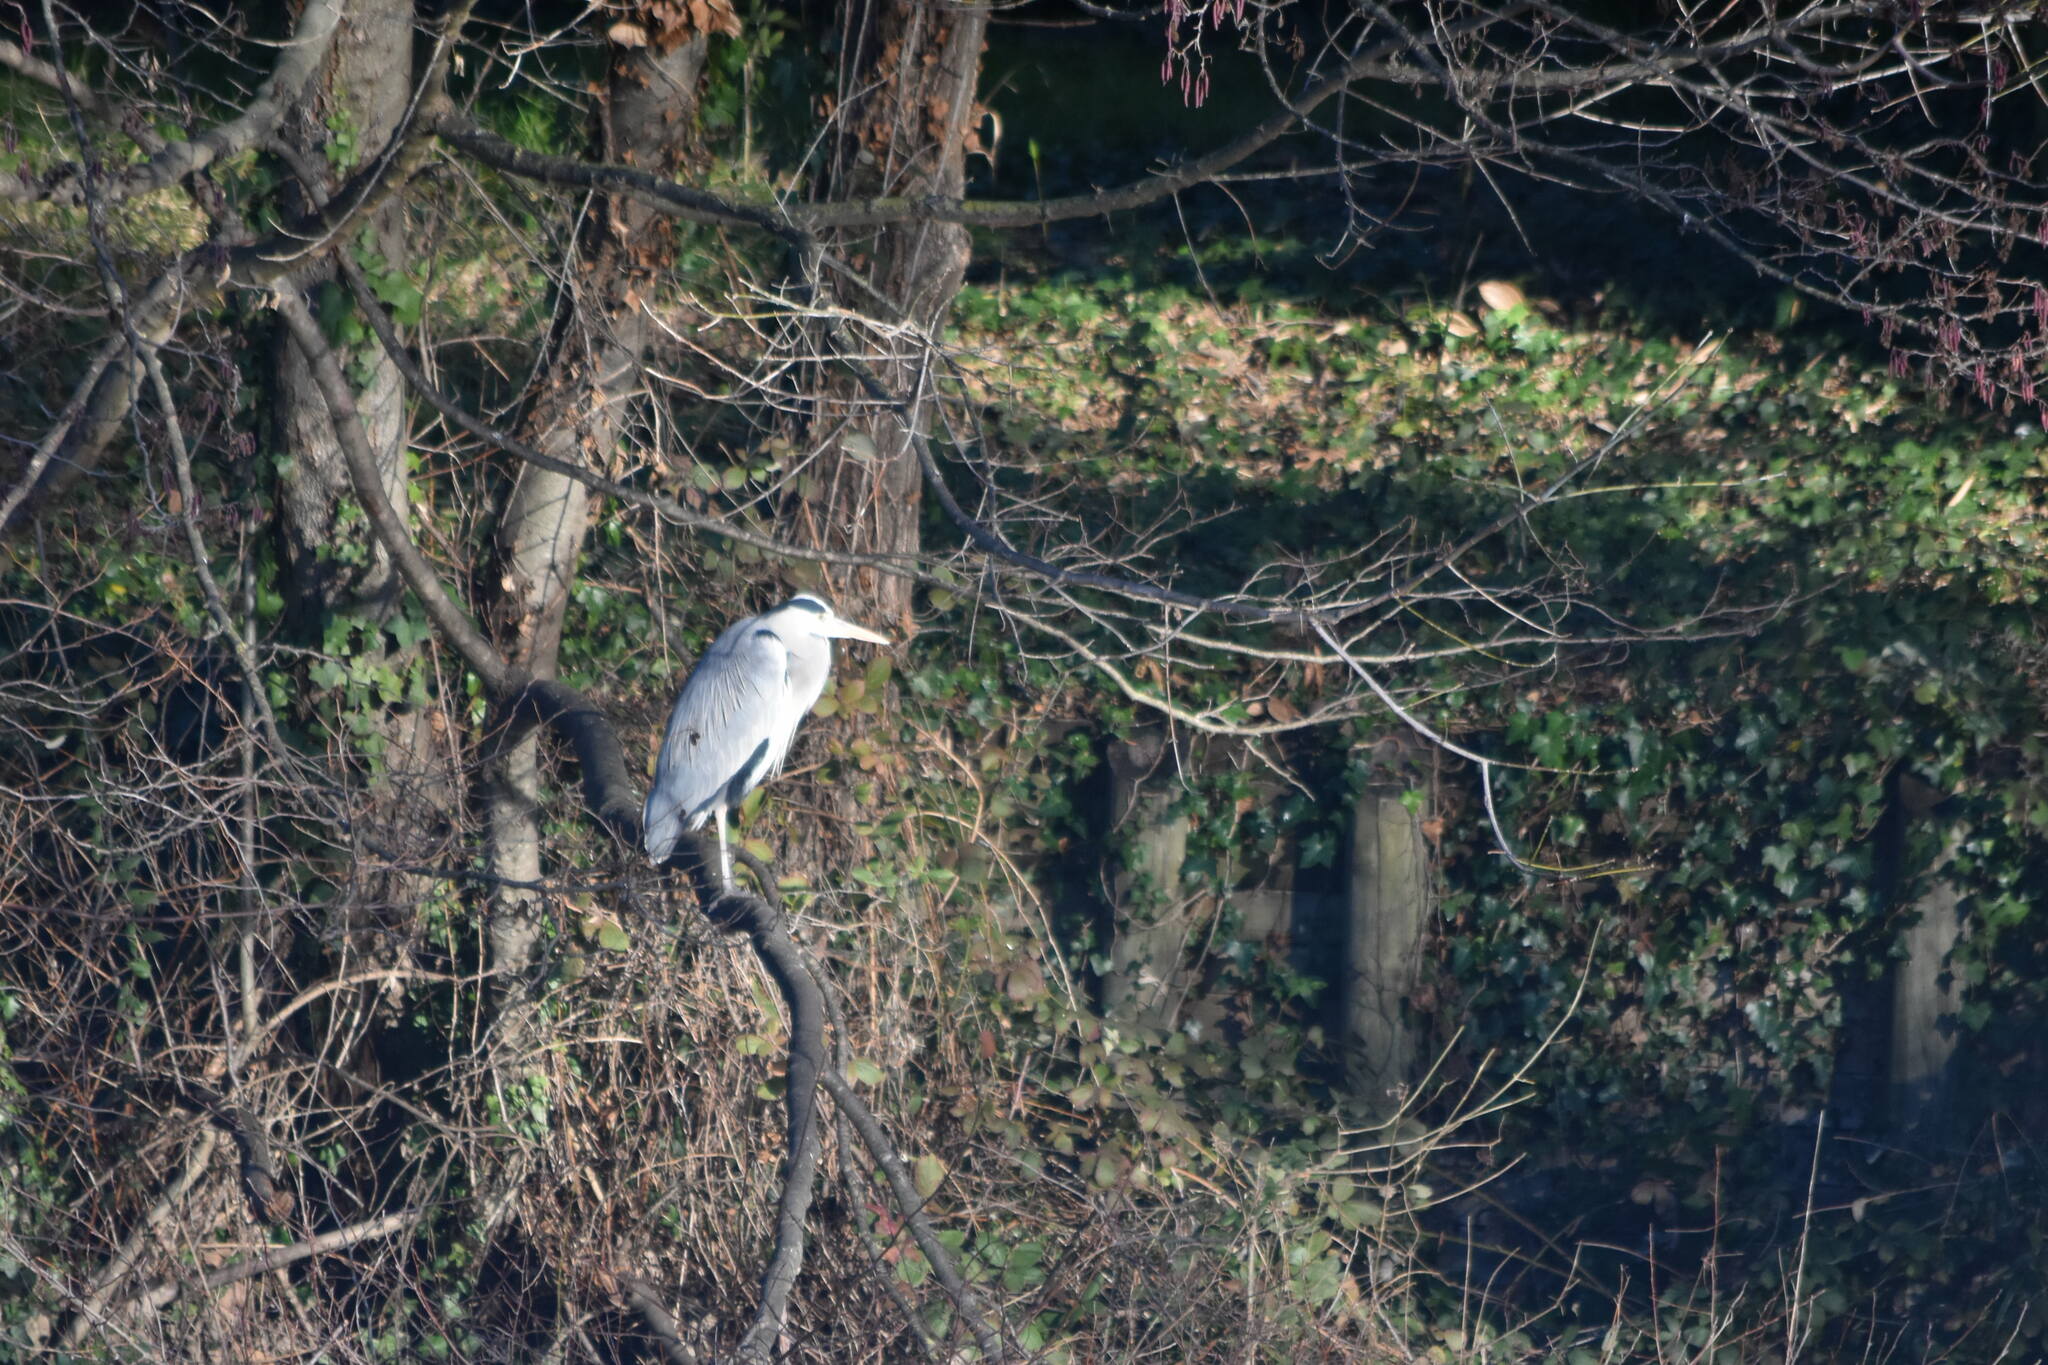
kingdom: Animalia
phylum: Chordata
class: Aves
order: Pelecaniformes
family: Ardeidae
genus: Ardea
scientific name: Ardea cinerea
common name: Grey heron
